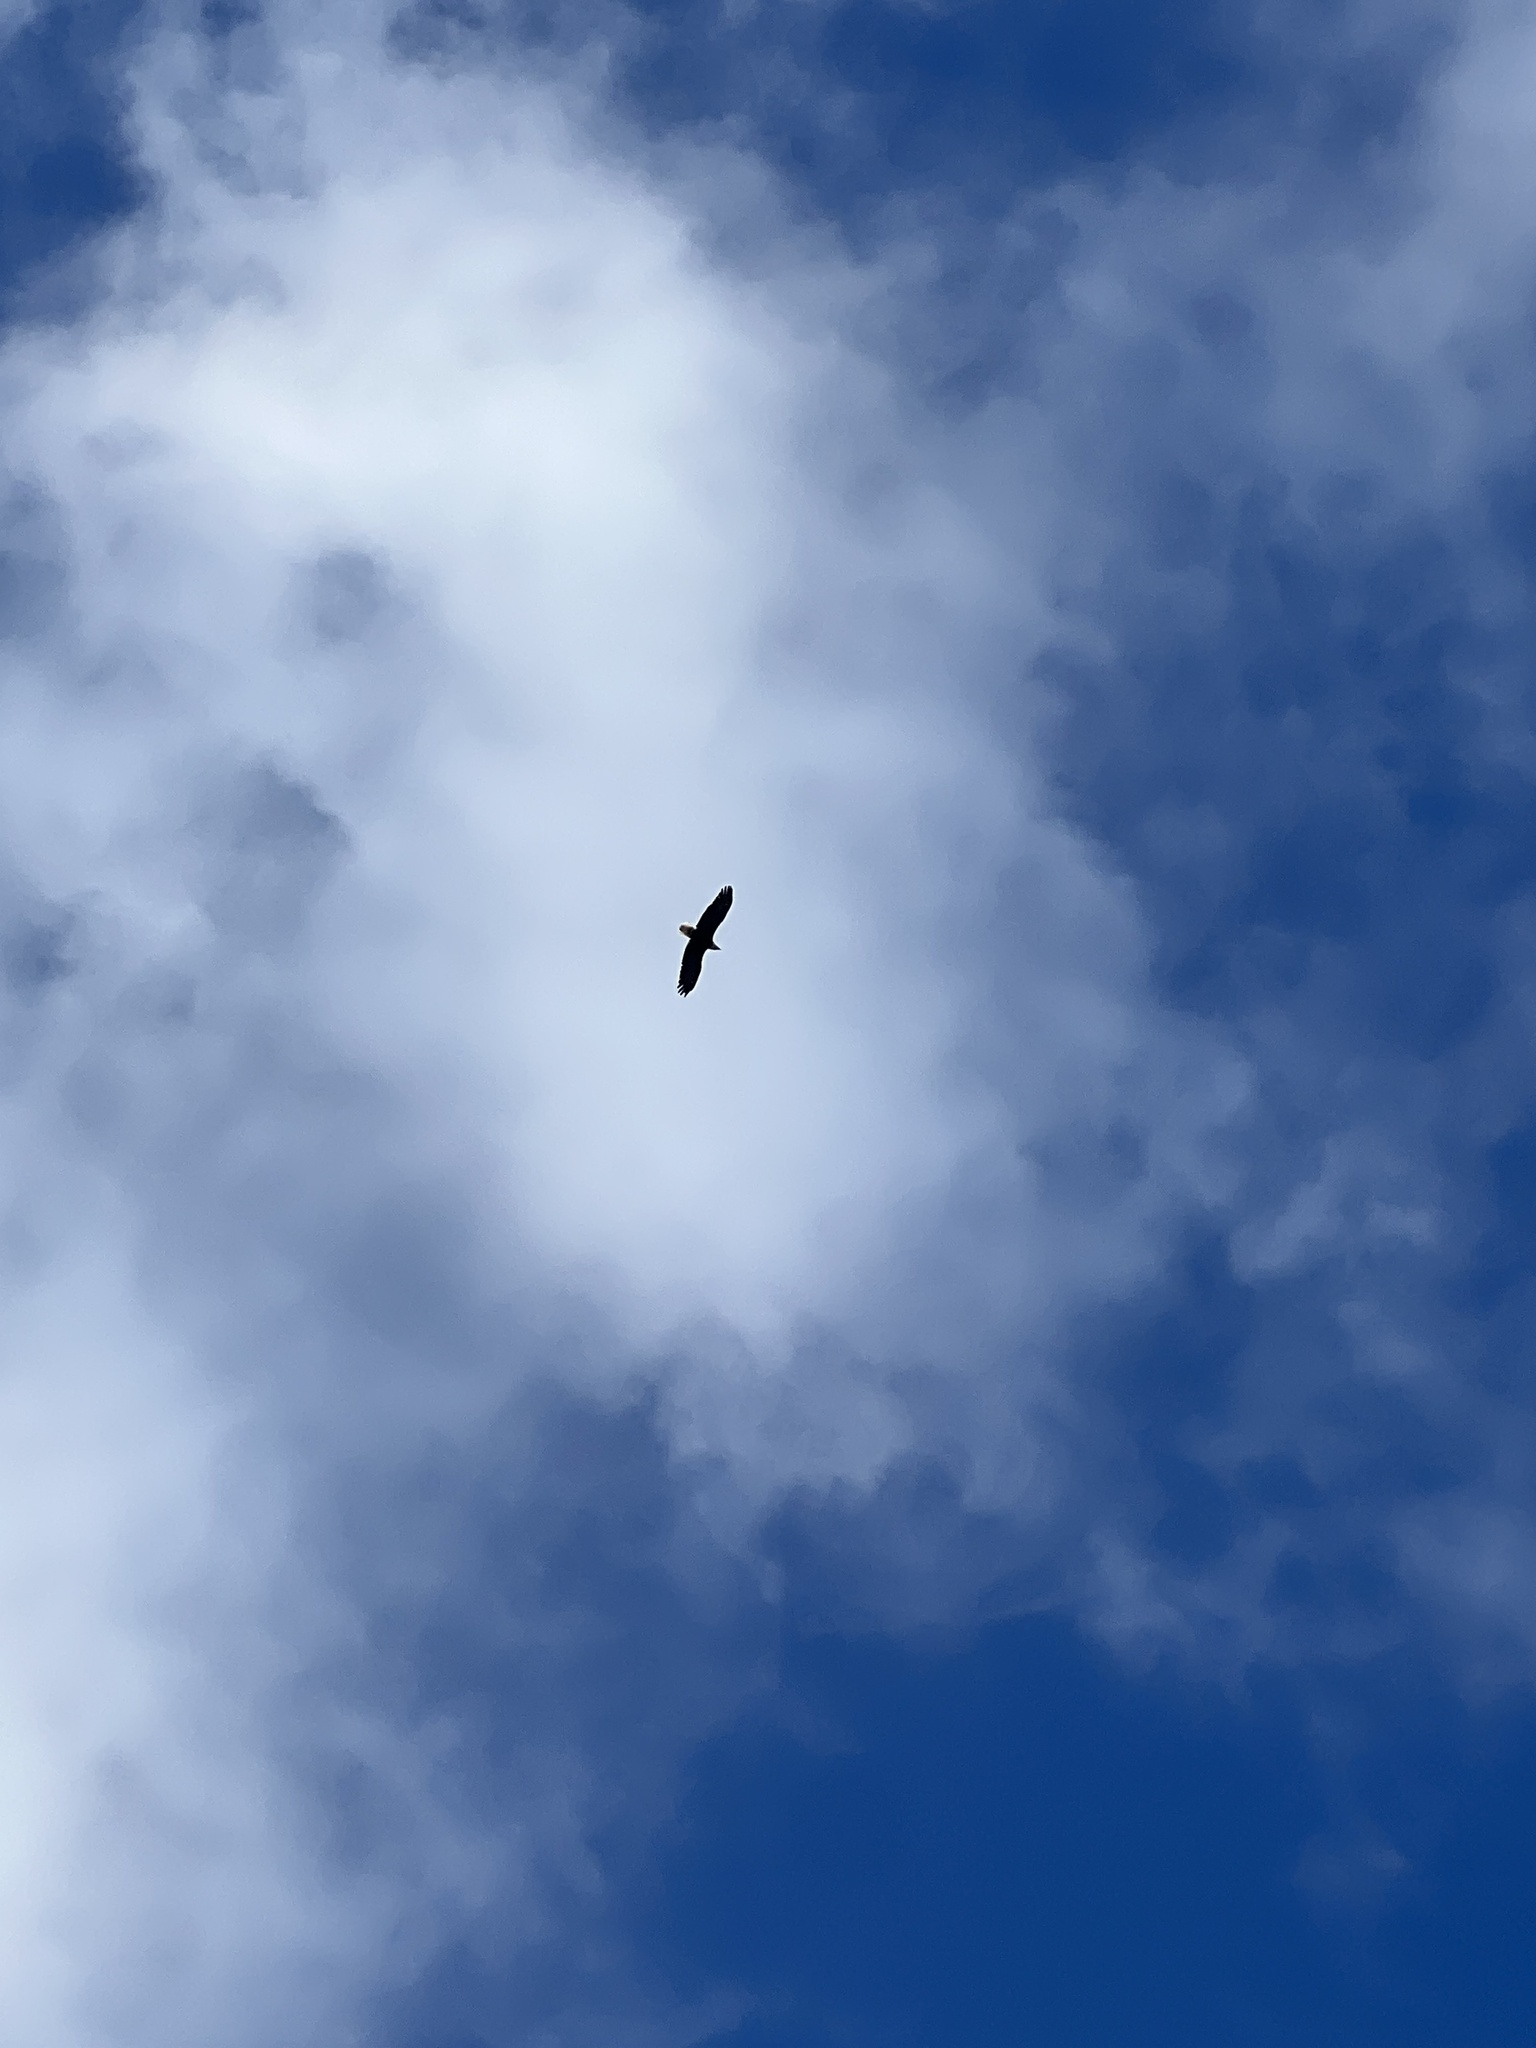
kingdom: Animalia
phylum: Chordata
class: Aves
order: Accipitriformes
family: Accipitridae
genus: Haliaeetus
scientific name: Haliaeetus leucocephalus
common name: Bald eagle
